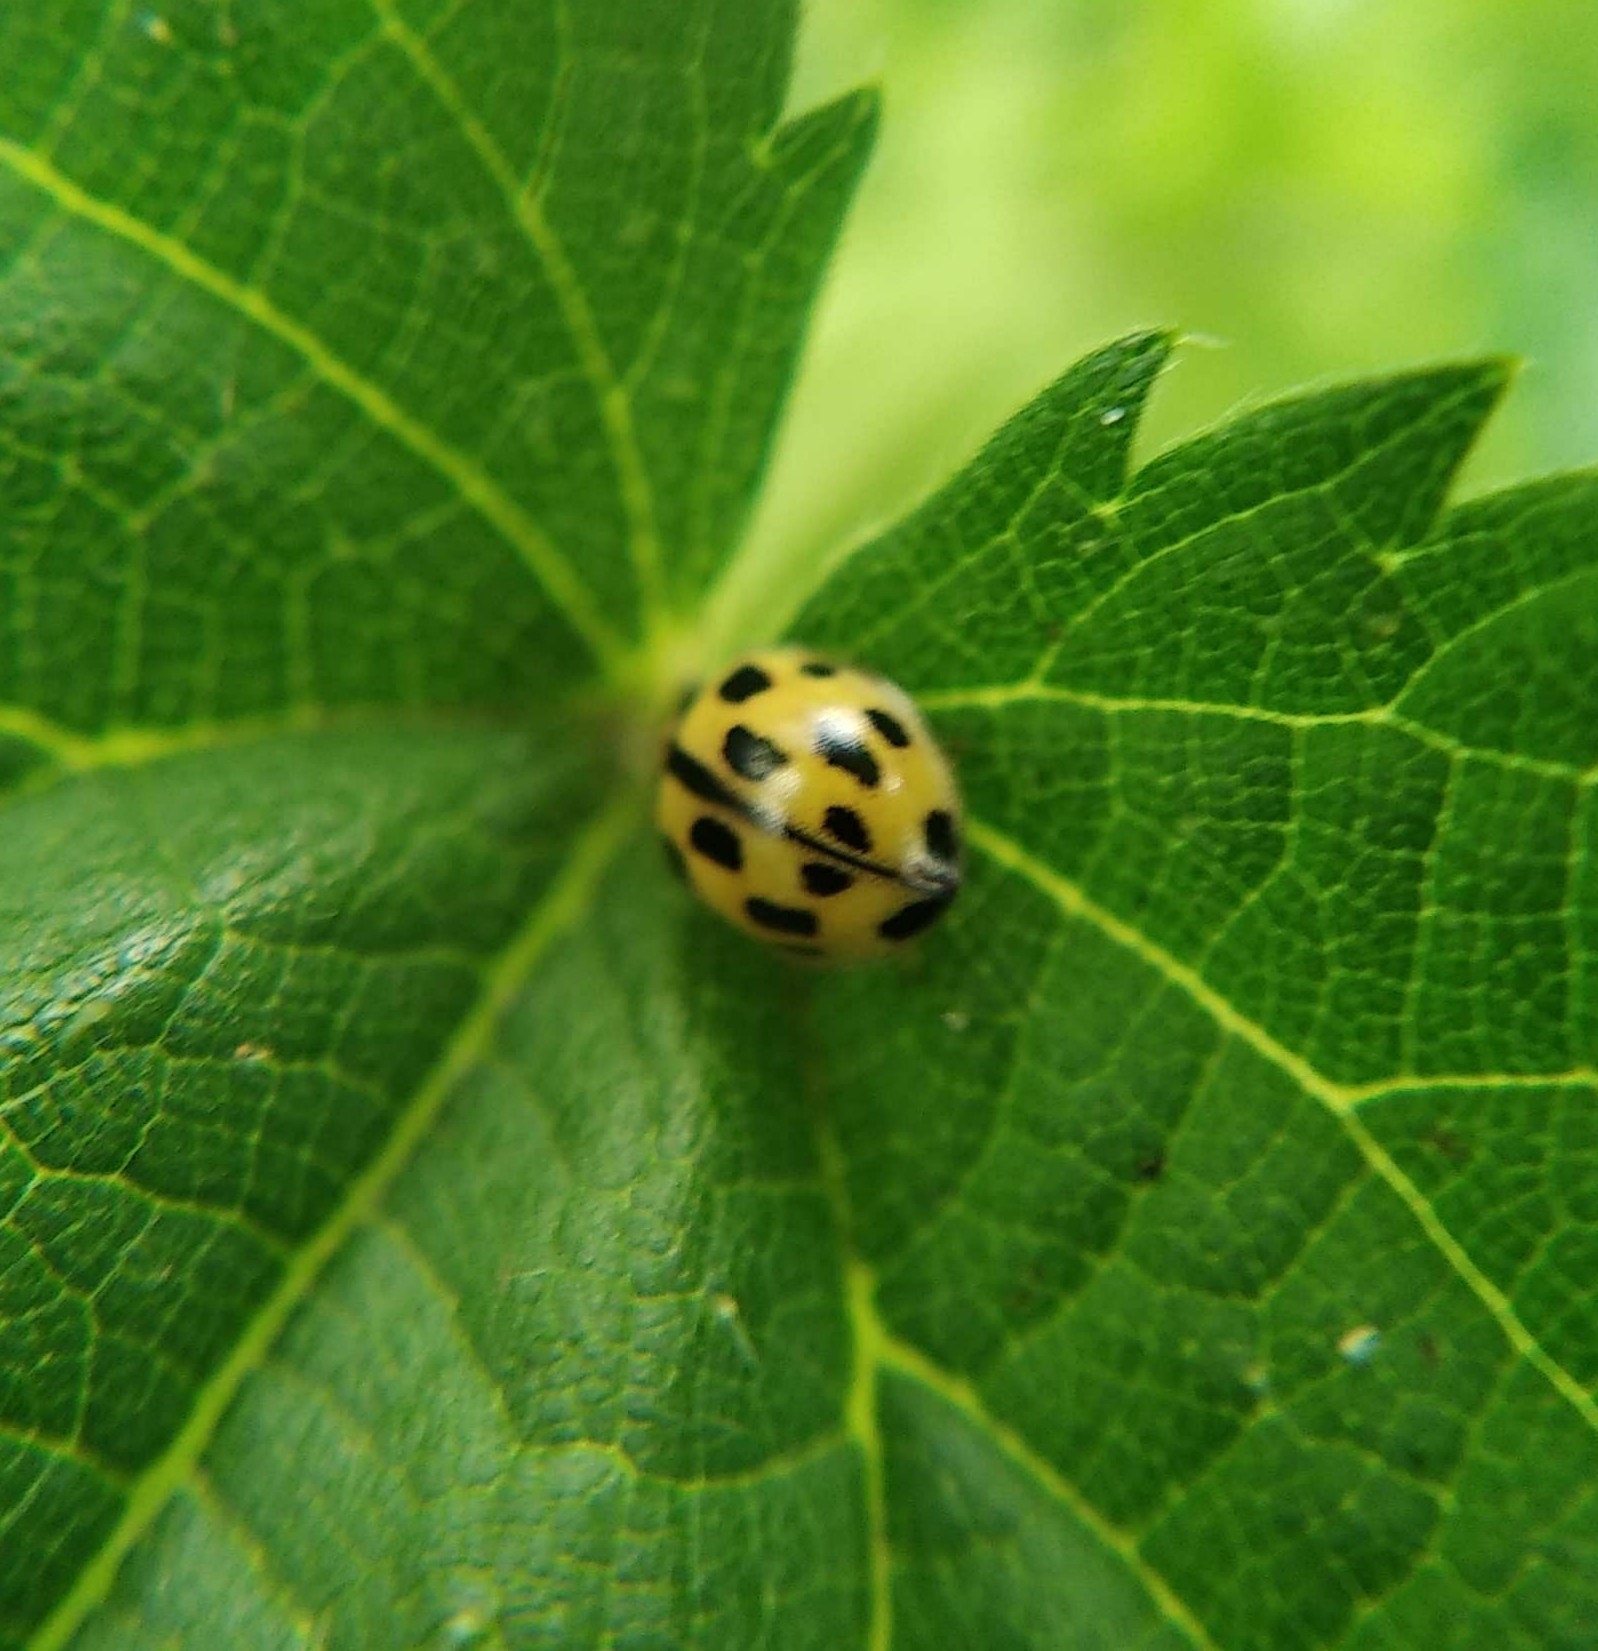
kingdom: Animalia
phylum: Arthropoda
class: Insecta
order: Coleoptera
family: Coccinellidae
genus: Propylaea
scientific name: Propylaea quatuordecimpunctata
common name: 14-spotted ladybird beetle
